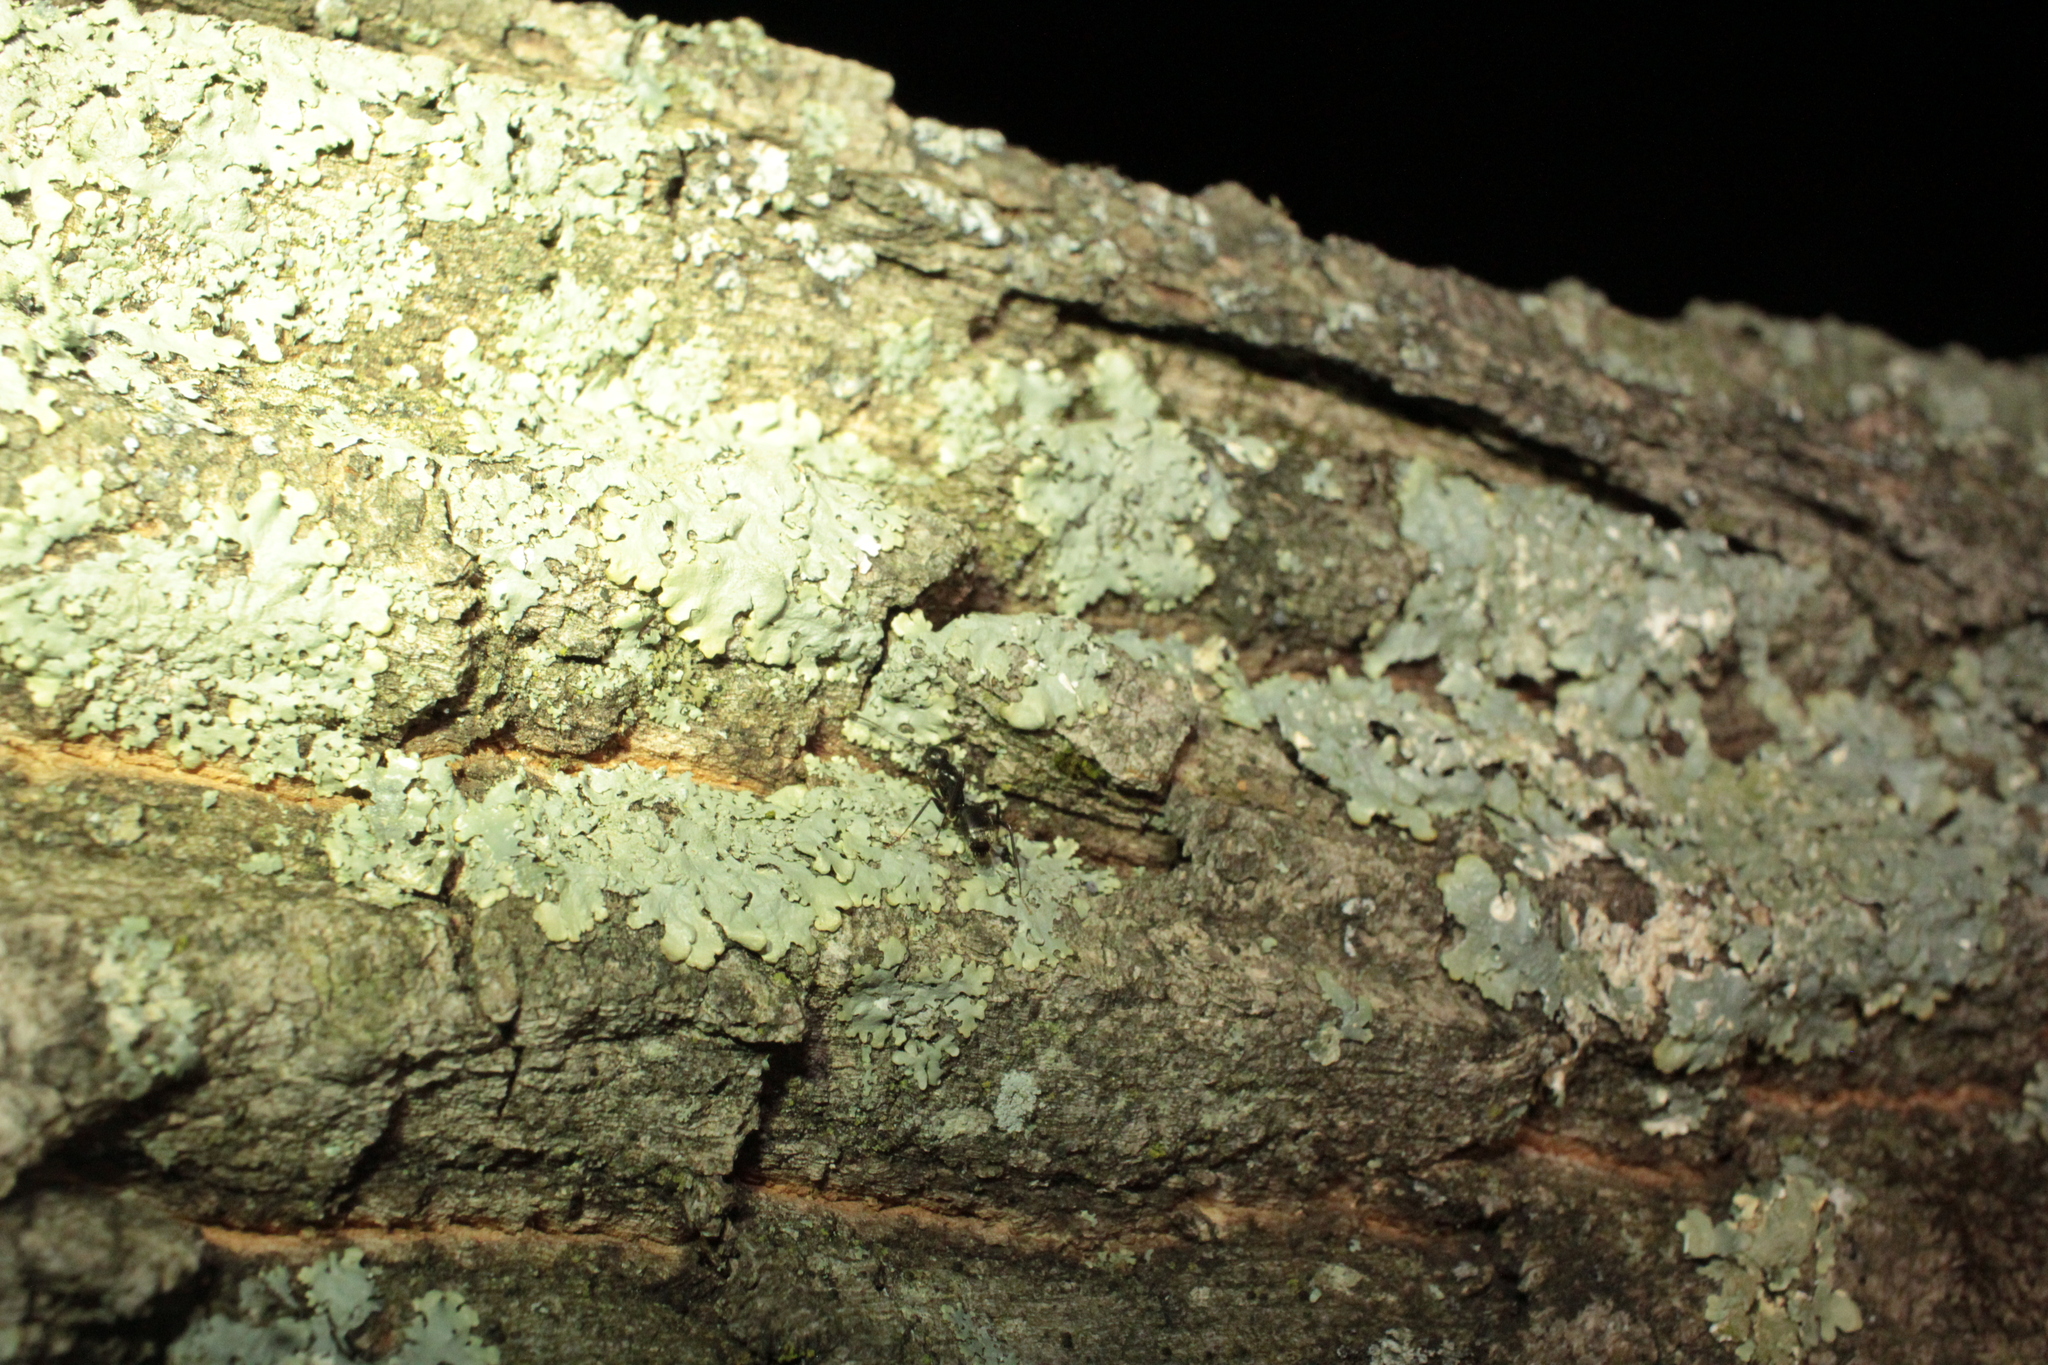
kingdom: Animalia
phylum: Arthropoda
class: Insecta
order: Hymenoptera
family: Formicidae
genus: Camponotus
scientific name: Camponotus pennsylvanicus
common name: Black carpenter ant
